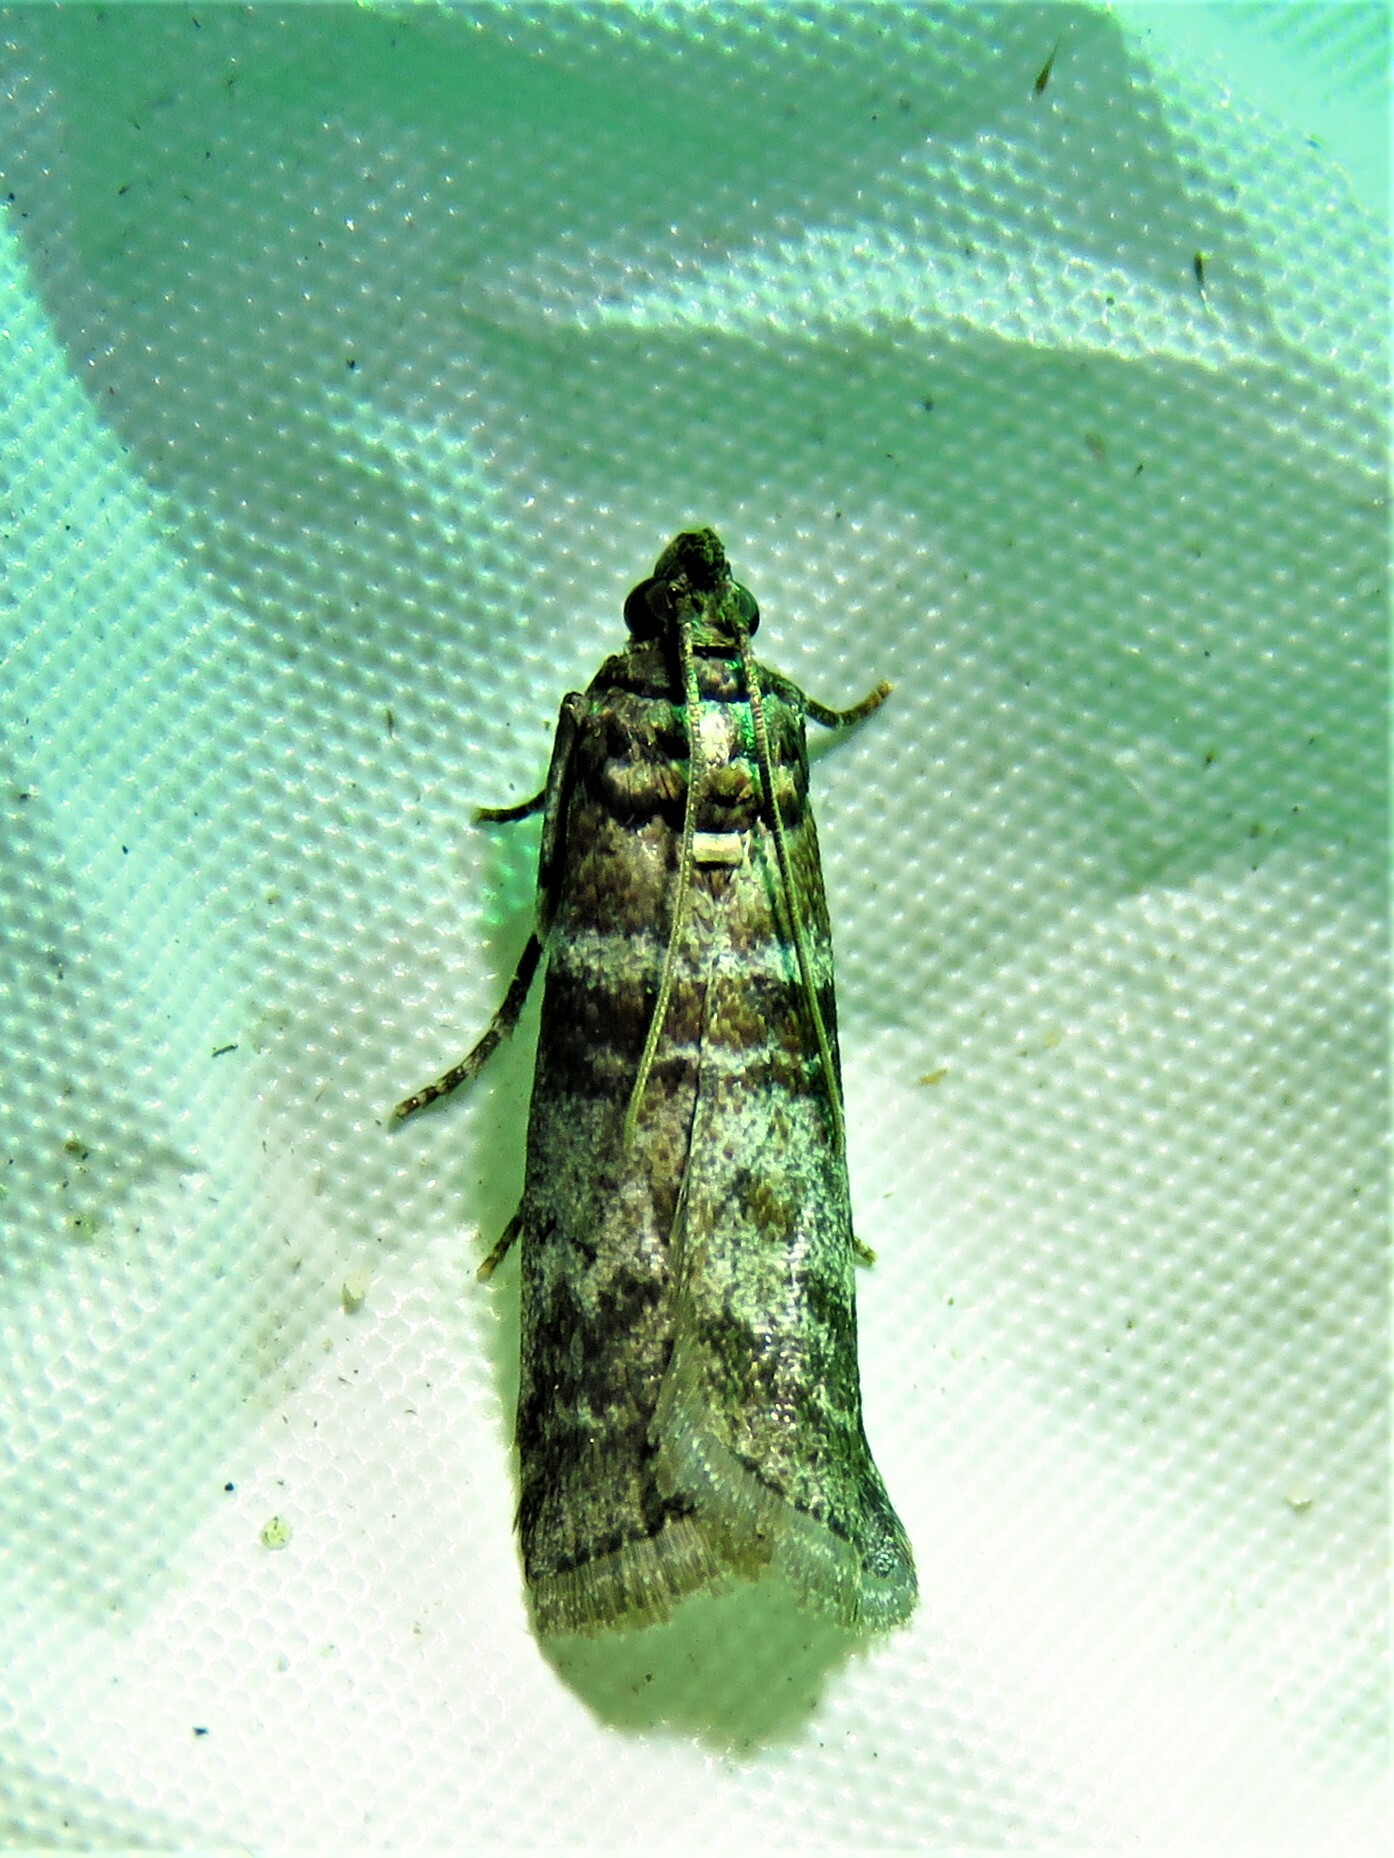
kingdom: Animalia
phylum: Arthropoda
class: Insecta
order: Lepidoptera
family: Pyralidae
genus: Sciota
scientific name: Sciota uvinella
